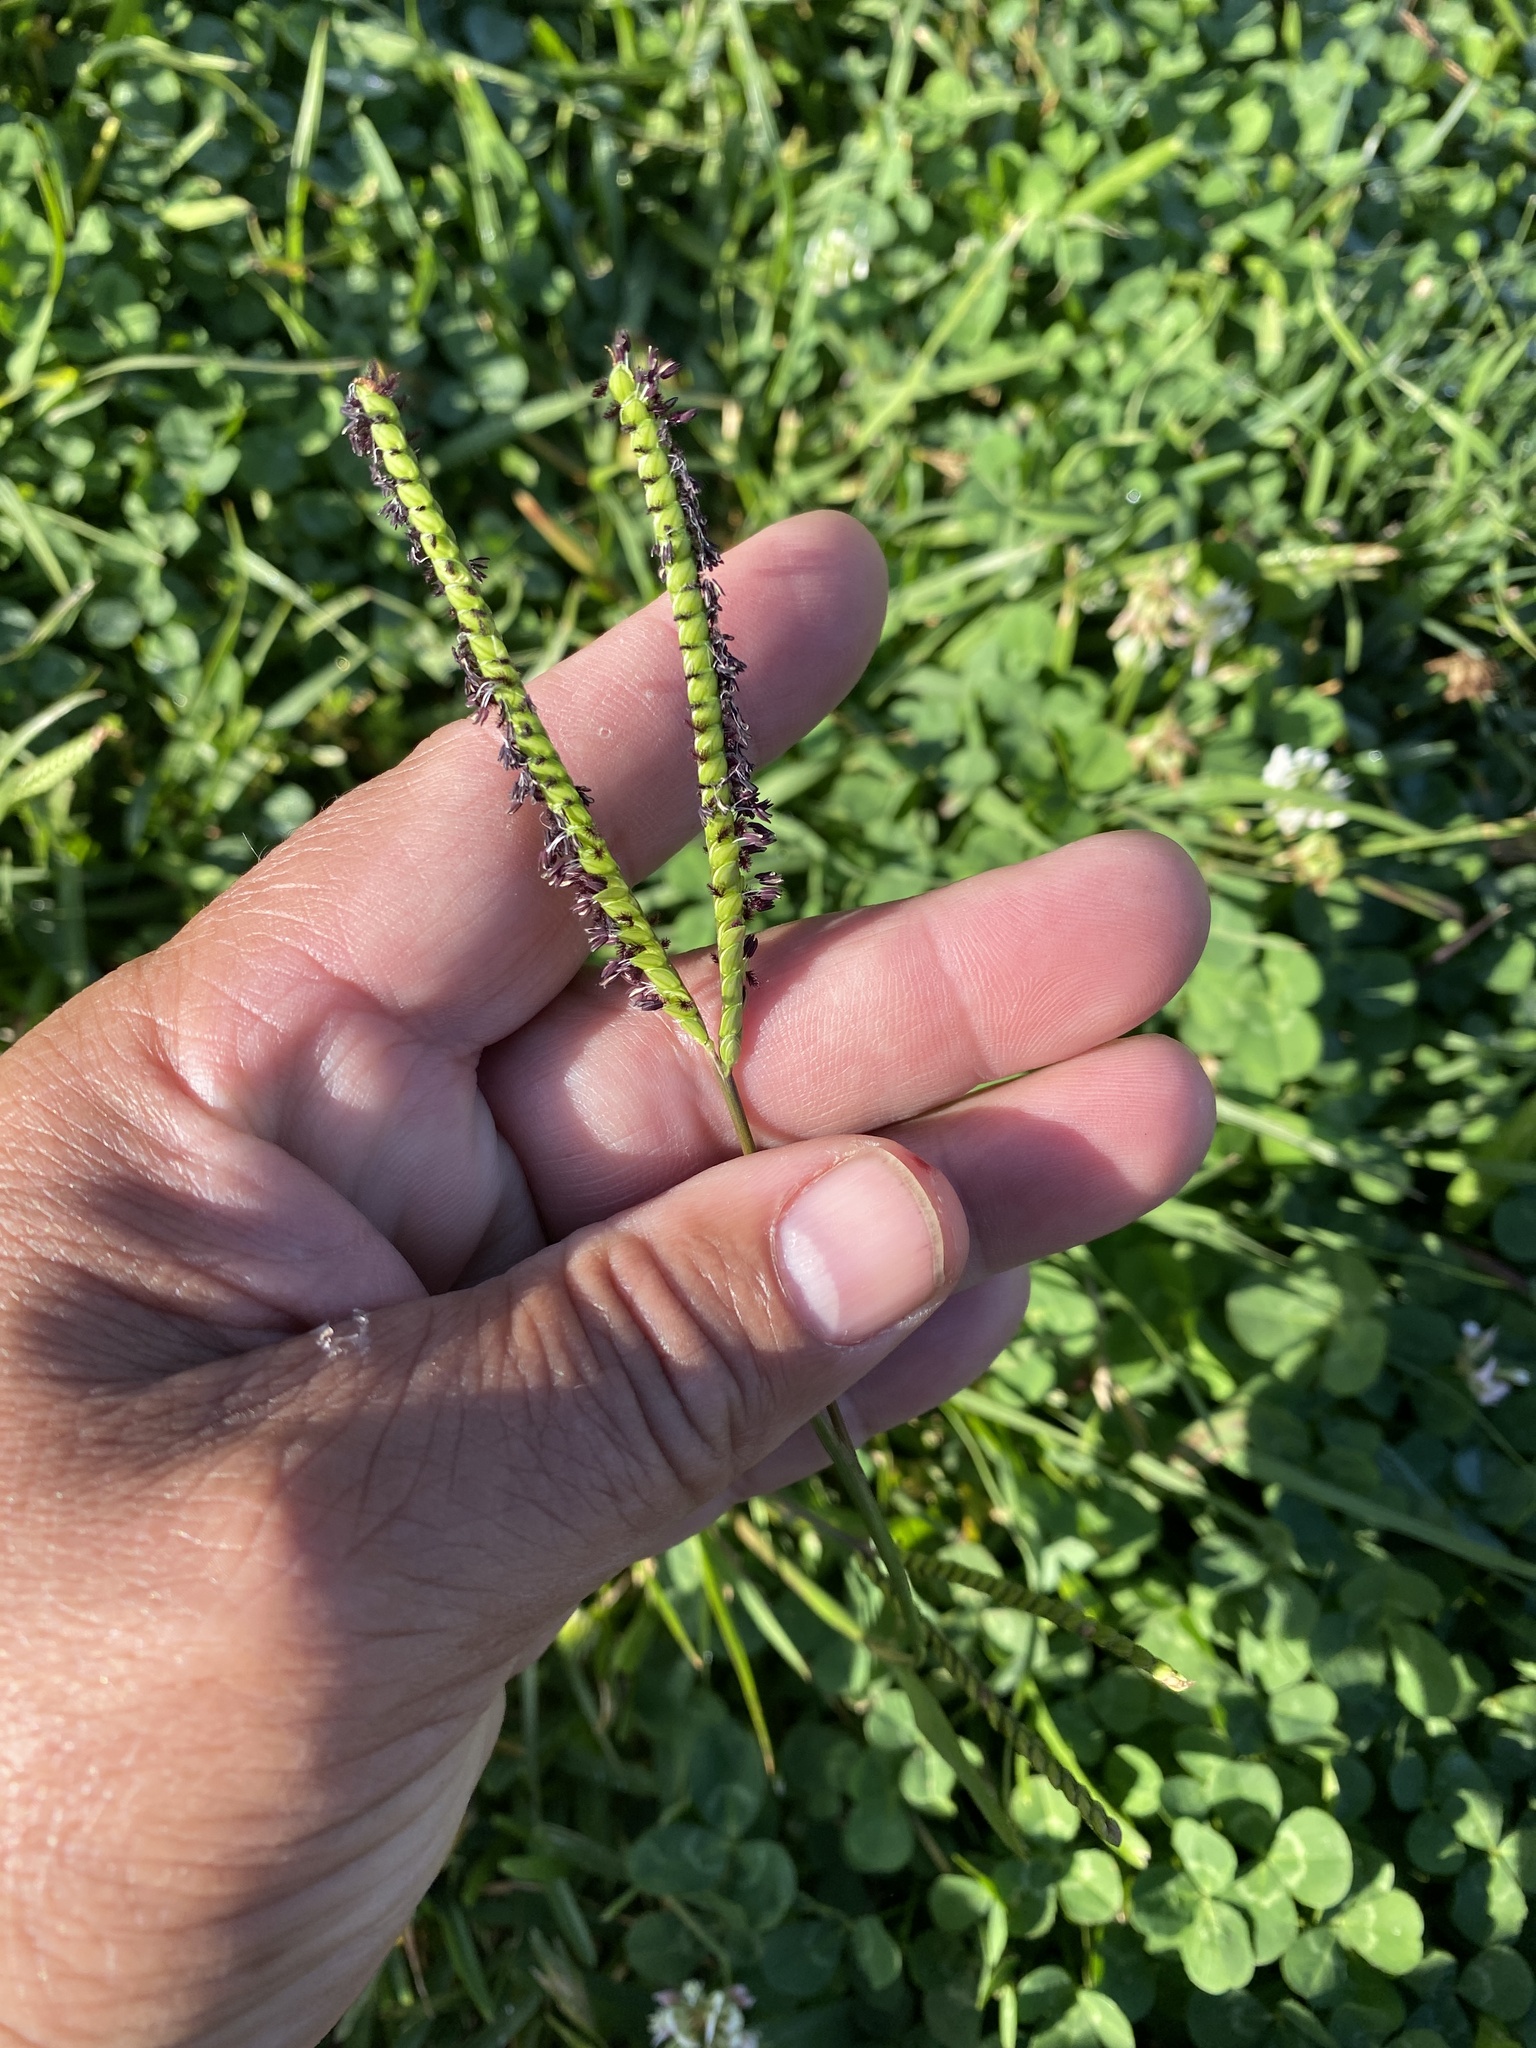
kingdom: Plantae
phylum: Tracheophyta
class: Liliopsida
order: Poales
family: Poaceae
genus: Paspalum
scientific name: Paspalum notatum
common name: Bahiagrass
